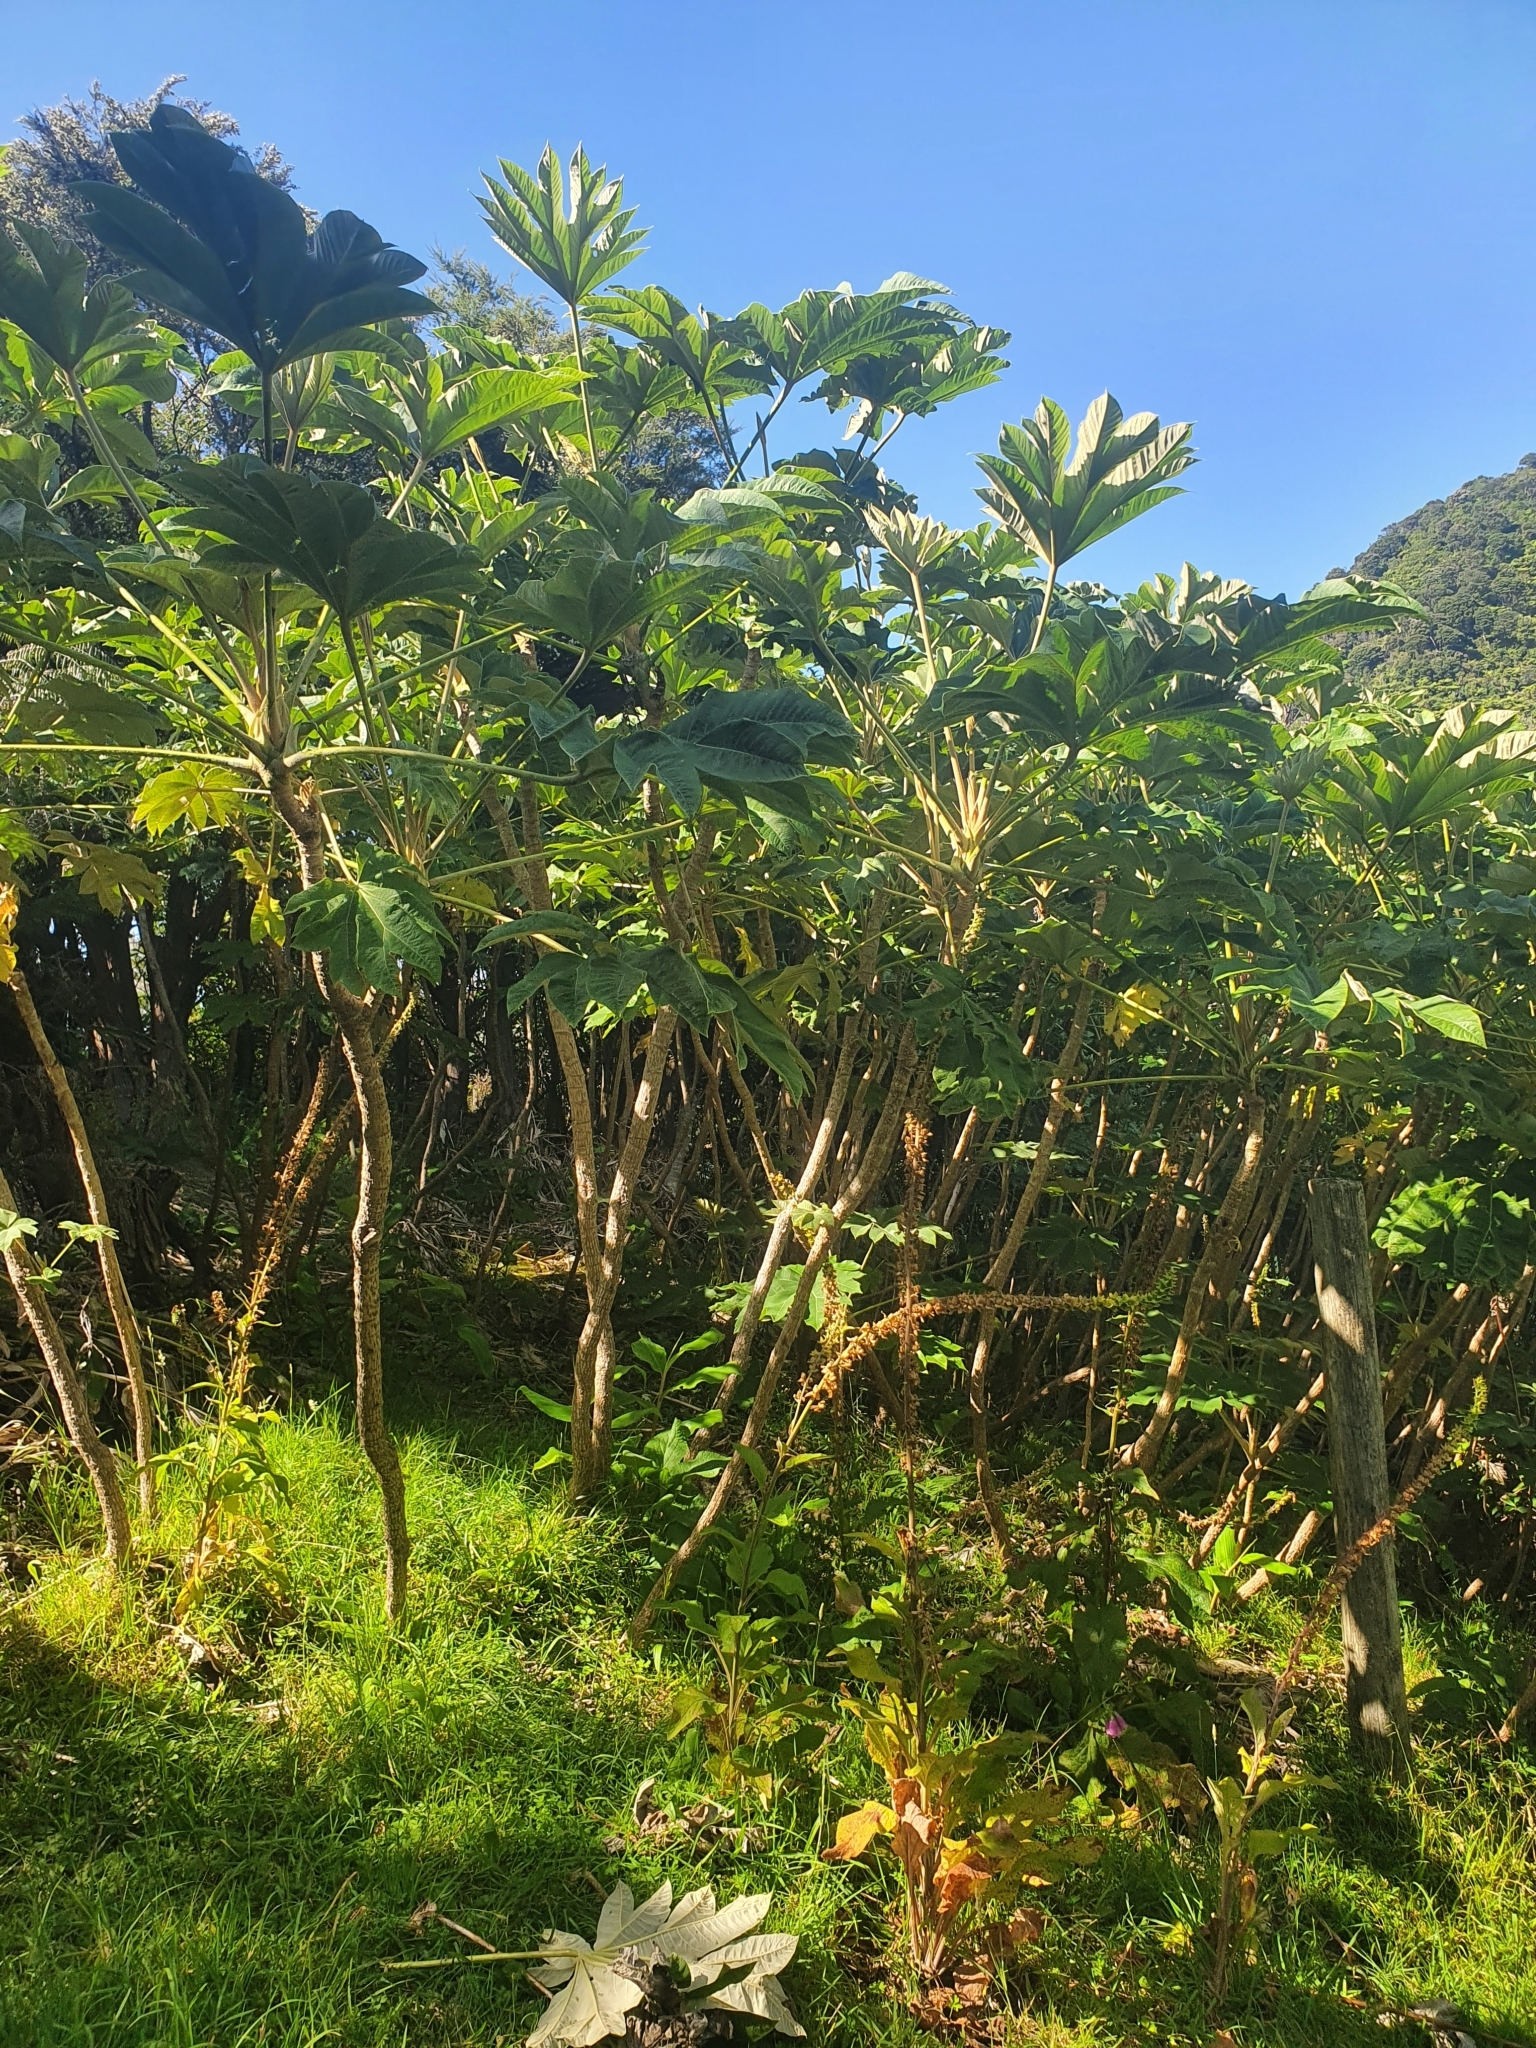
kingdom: Plantae
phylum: Tracheophyta
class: Magnoliopsida
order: Apiales
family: Araliaceae
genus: Tetrapanax
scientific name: Tetrapanax papyrifer
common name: Rice-paper plant
